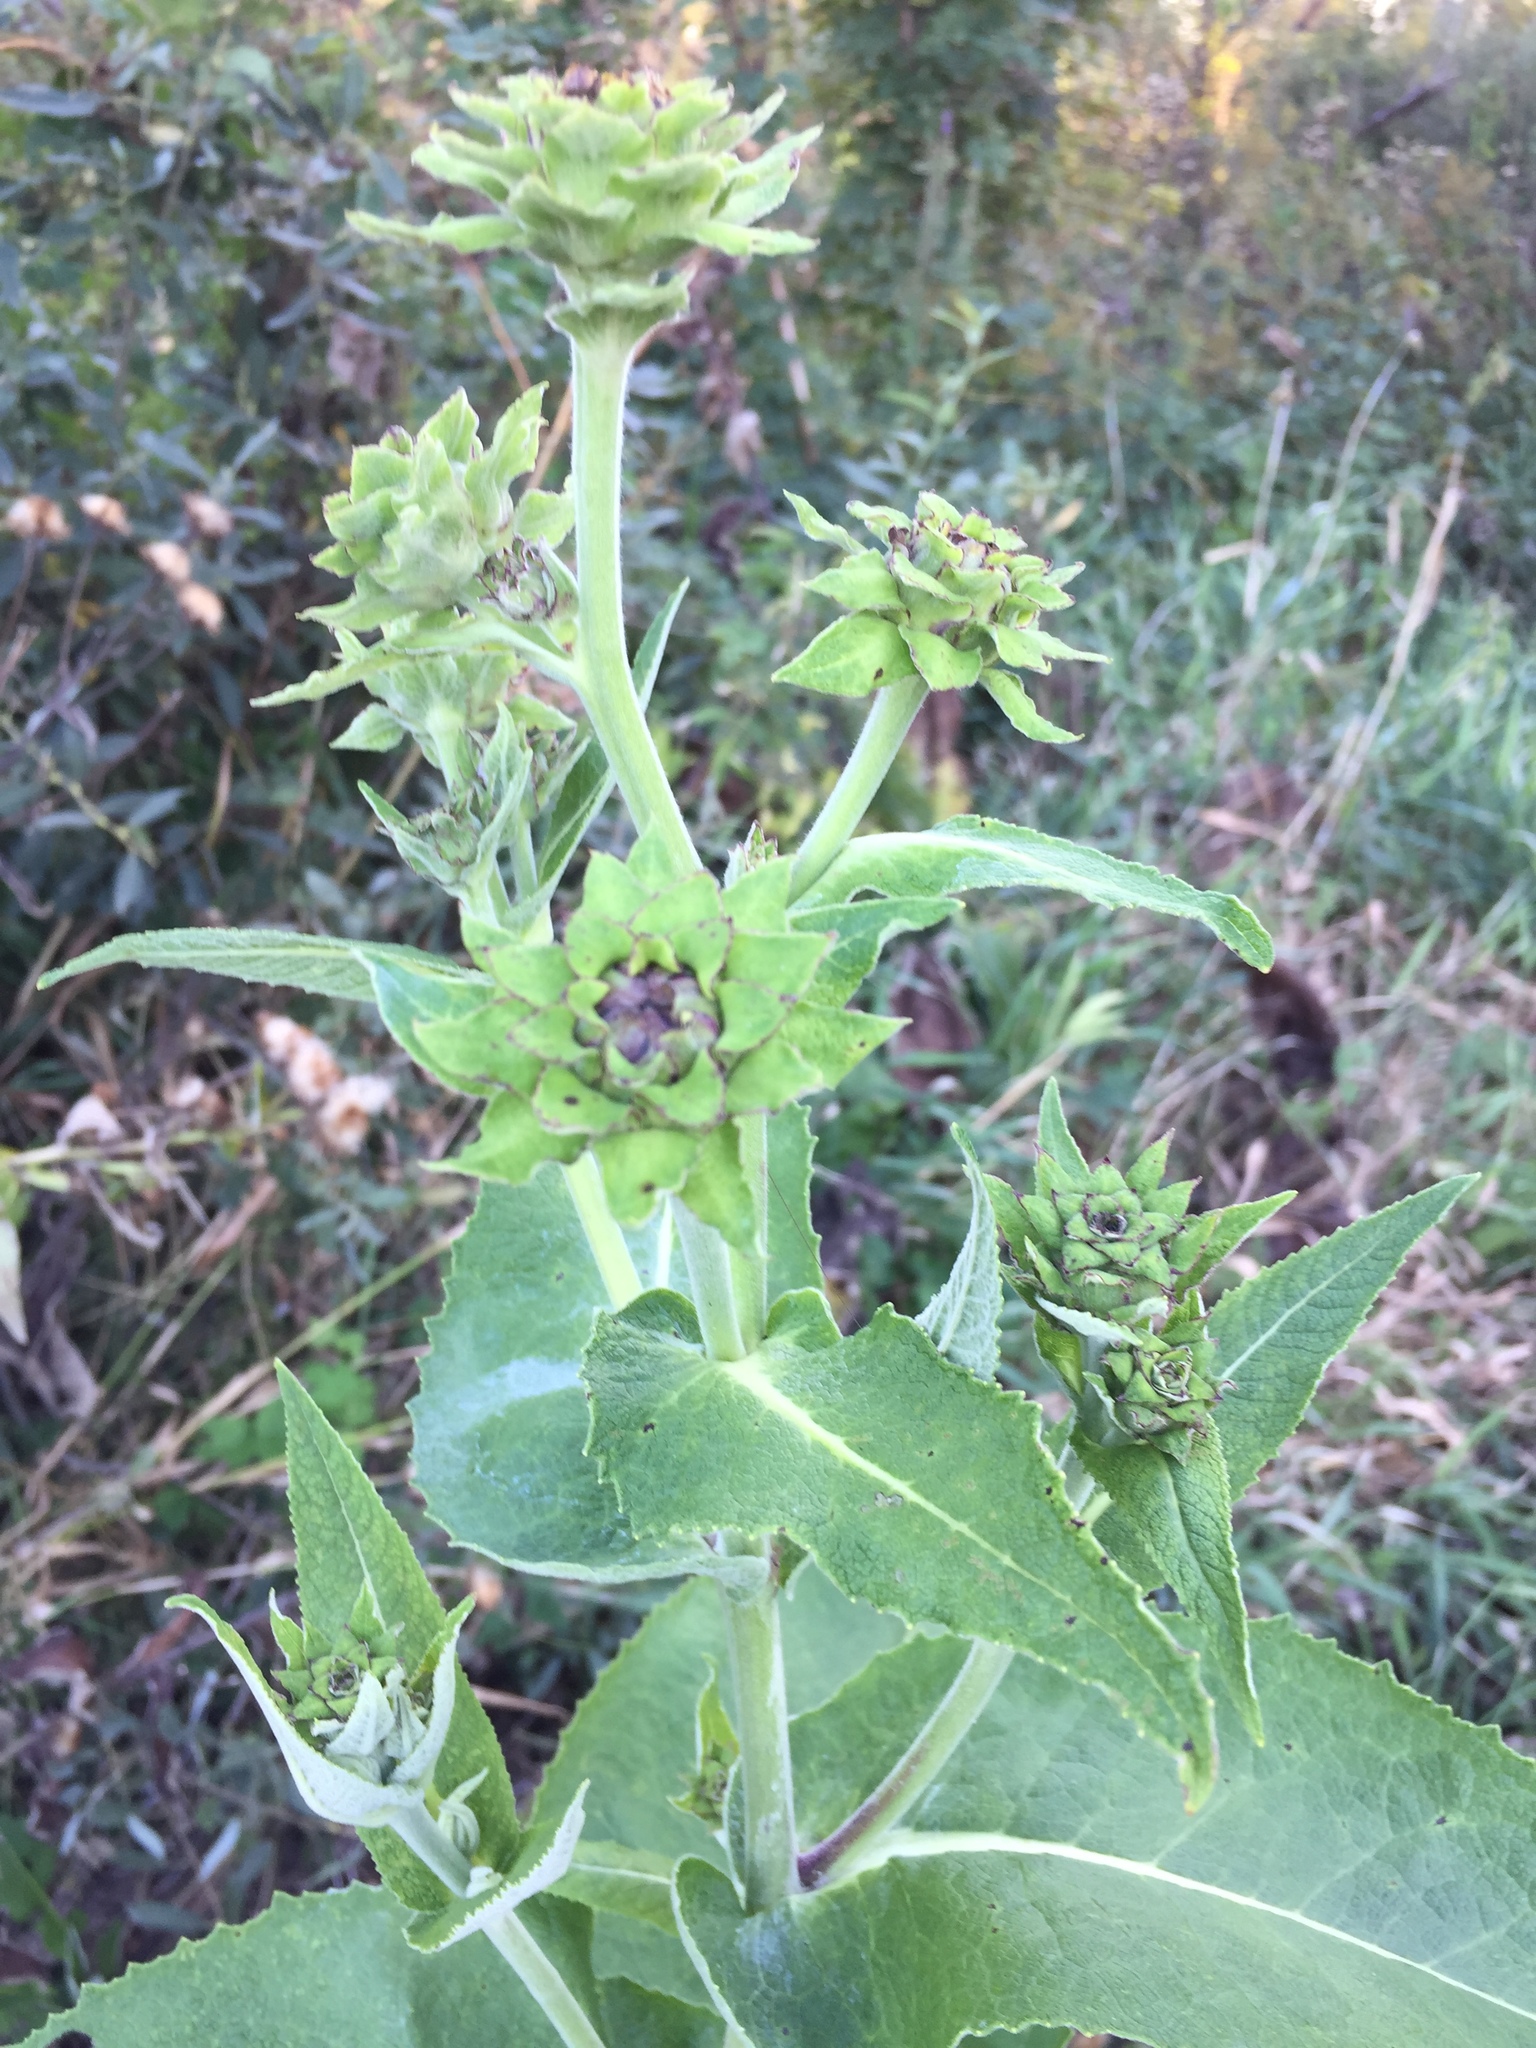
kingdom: Plantae
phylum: Tracheophyta
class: Magnoliopsida
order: Asterales
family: Asteraceae
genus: Inula
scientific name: Inula helenium
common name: Elecampane
